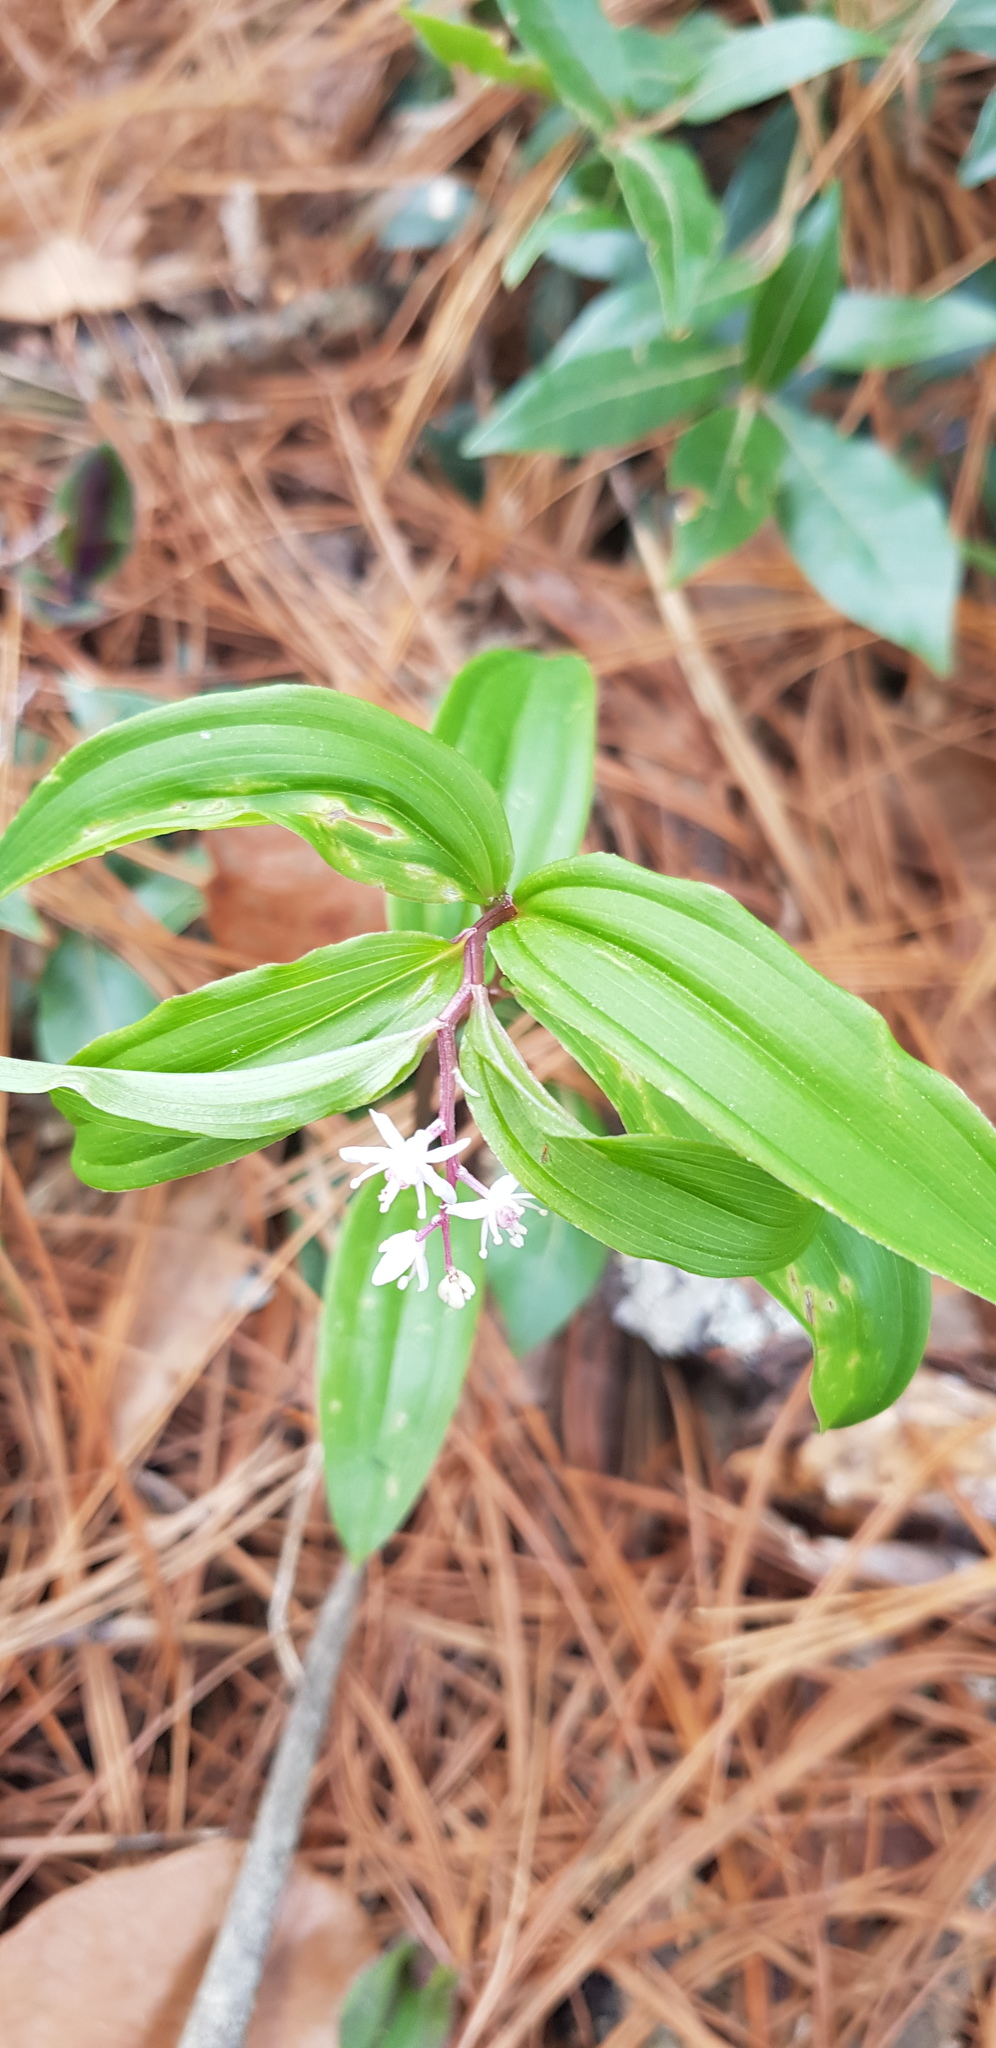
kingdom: Plantae
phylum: Tracheophyta
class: Liliopsida
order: Asparagales
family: Asparagaceae
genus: Maianthemum
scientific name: Maianthemum scilloideum
